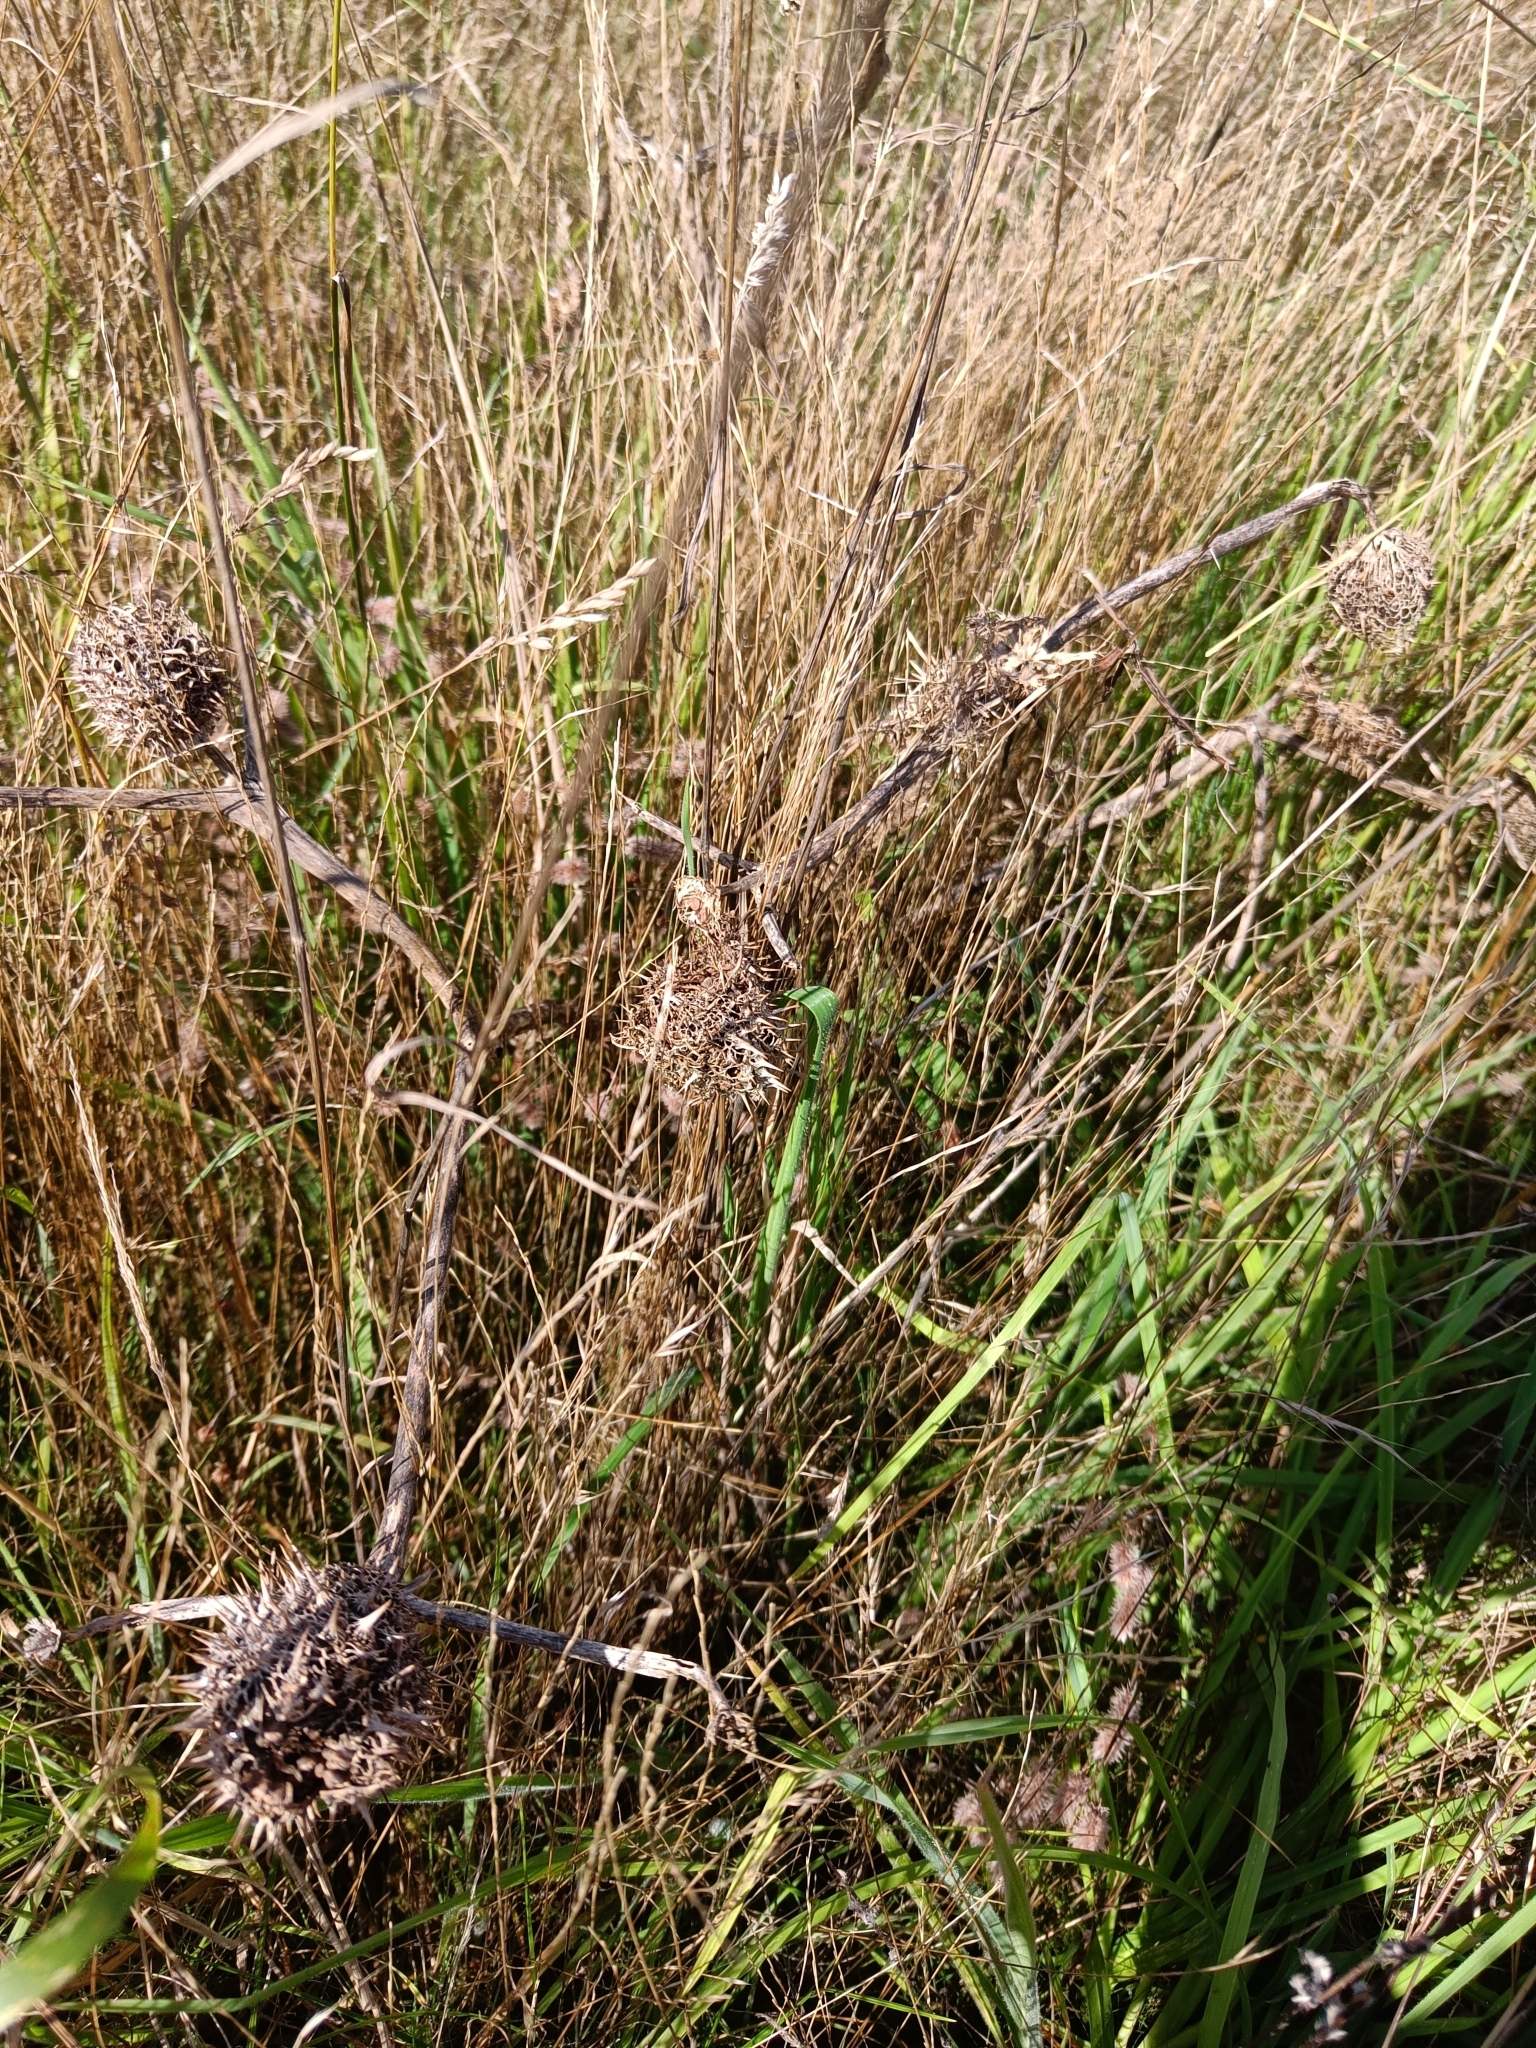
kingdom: Plantae
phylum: Tracheophyta
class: Magnoliopsida
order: Solanales
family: Solanaceae
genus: Datura
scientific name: Datura stramonium
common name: Thorn-apple
